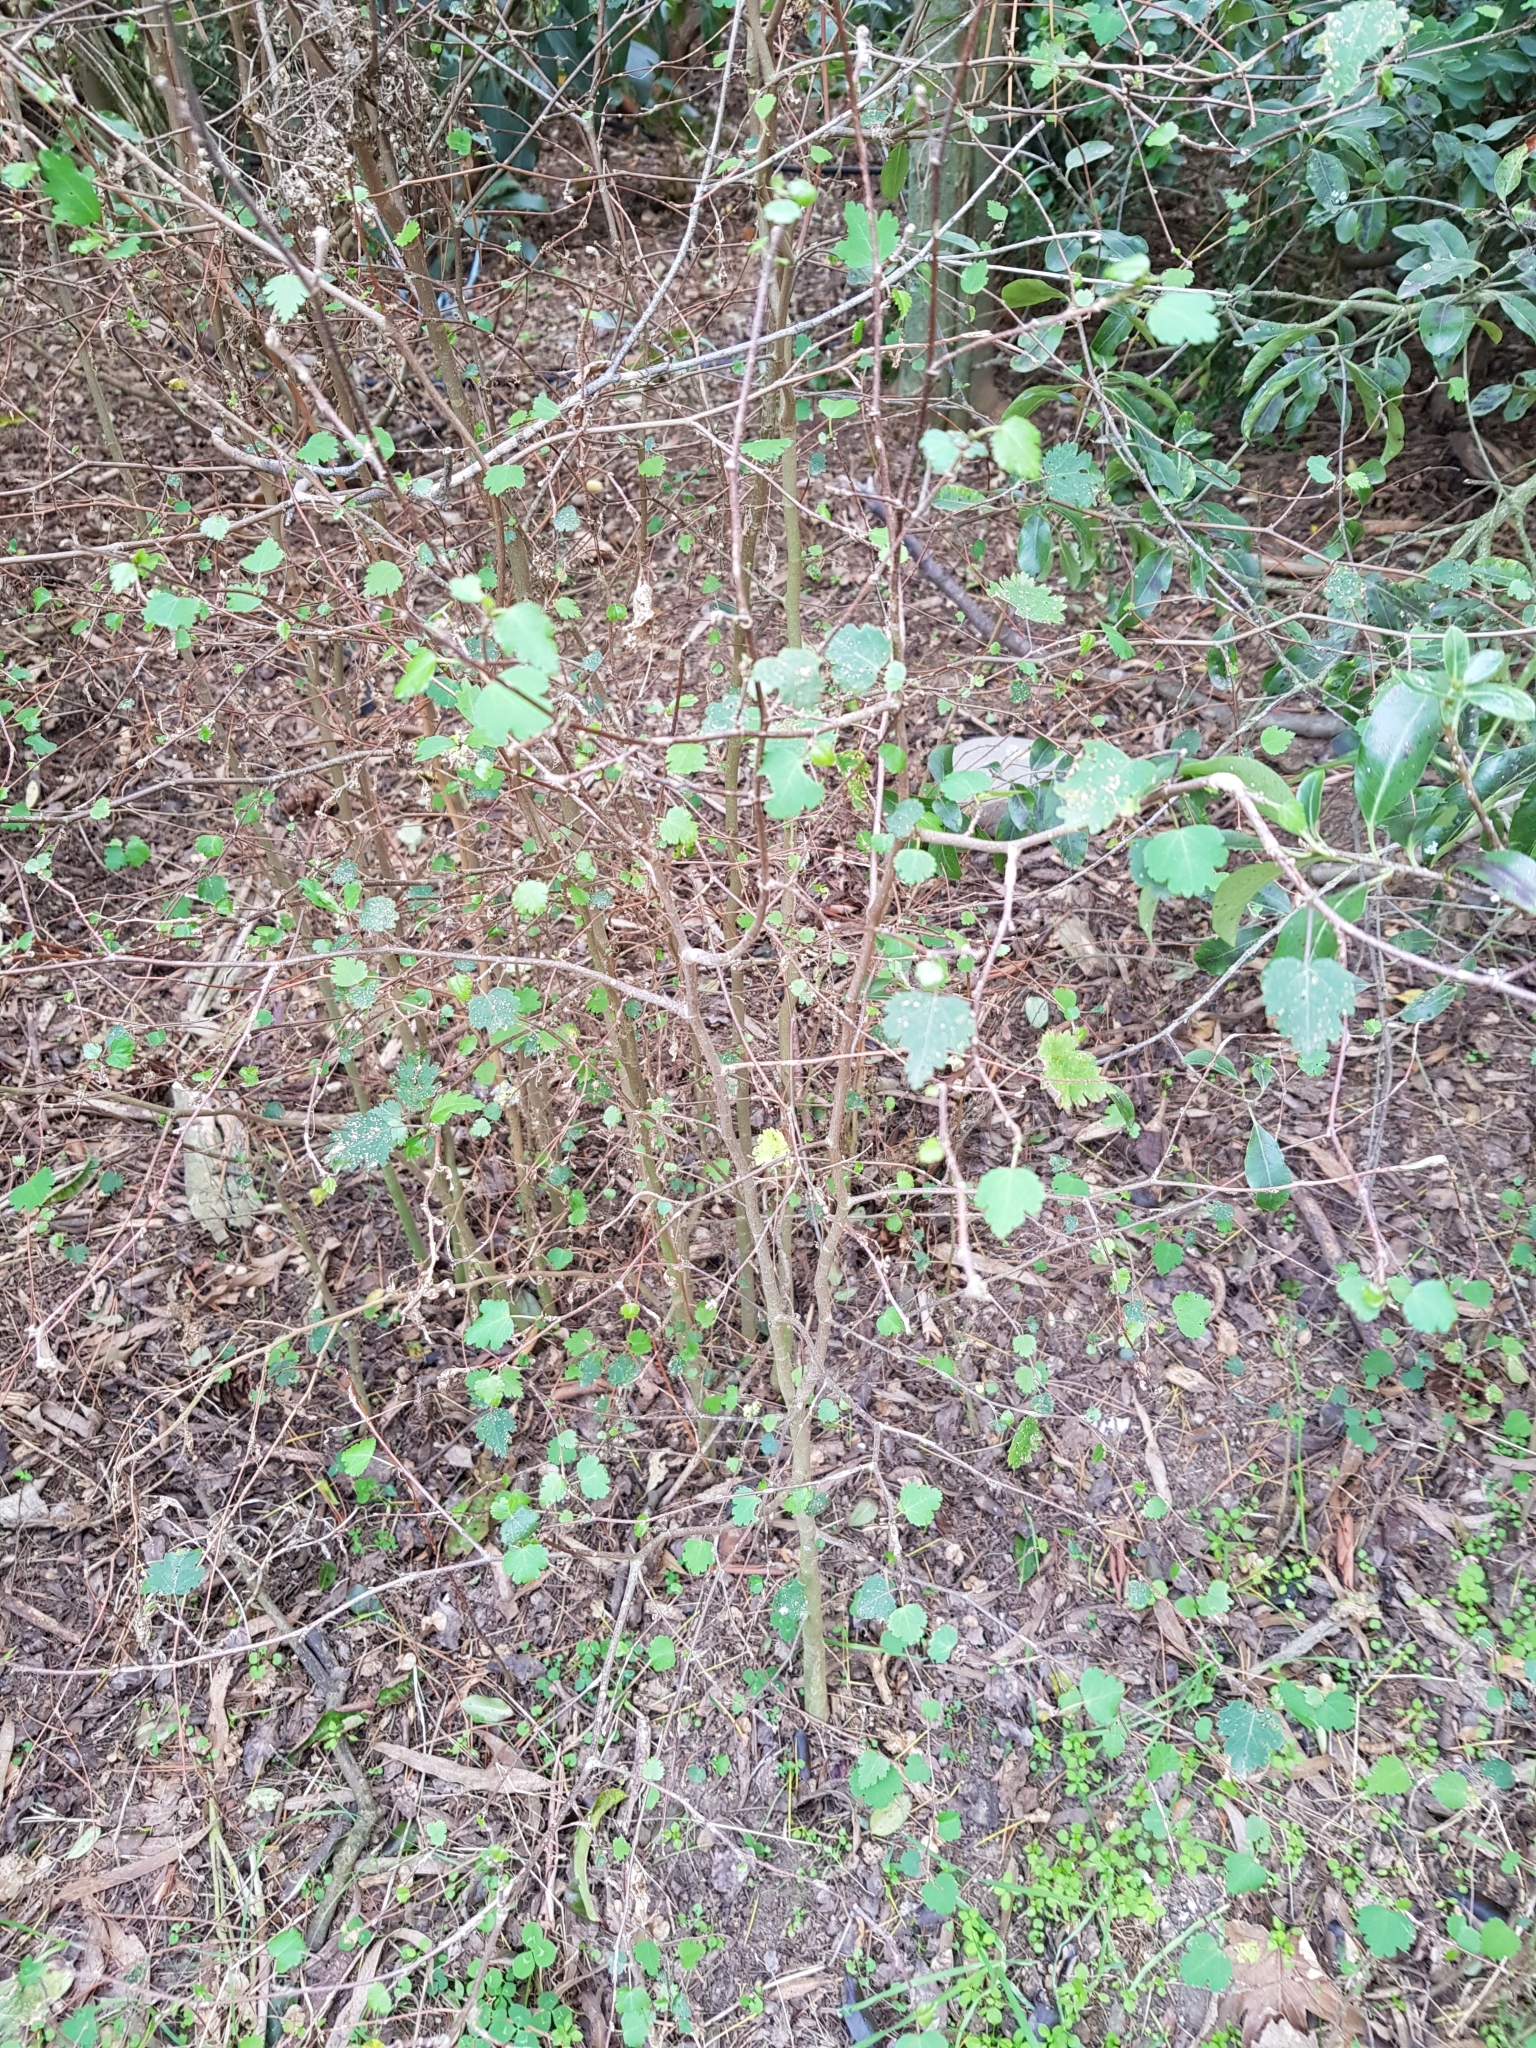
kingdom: Plantae
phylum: Tracheophyta
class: Magnoliopsida
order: Malvales
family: Malvaceae
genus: Plagianthus
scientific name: Plagianthus regius
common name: Manatu
